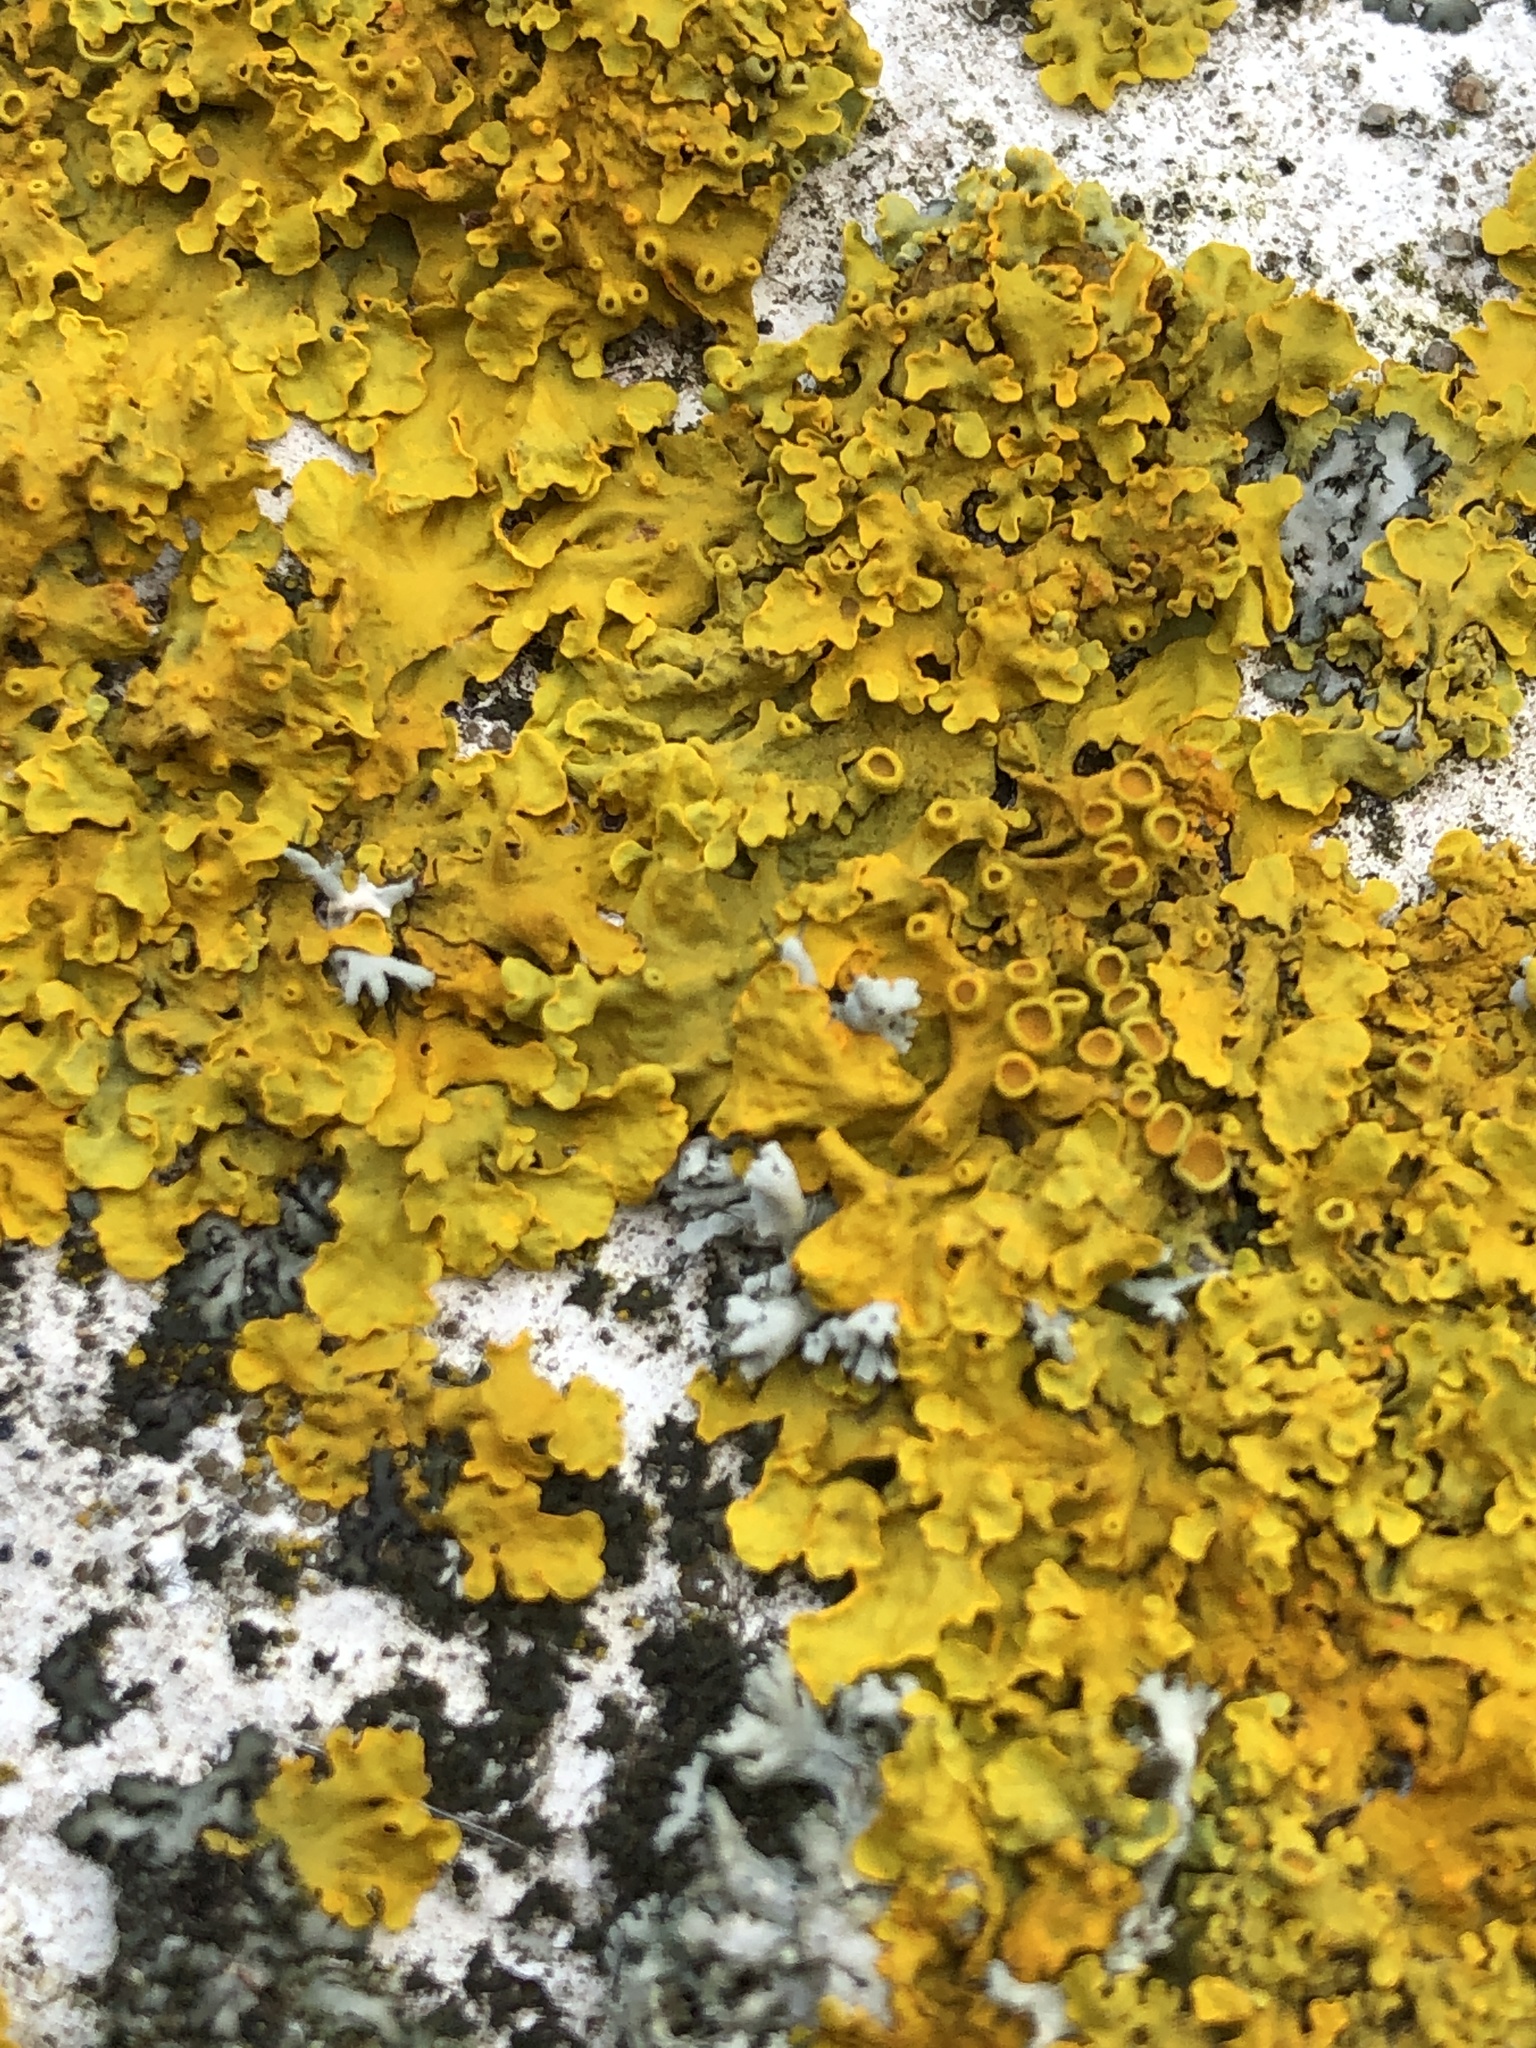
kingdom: Fungi
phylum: Ascomycota
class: Lecanoromycetes
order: Teloschistales
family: Teloschistaceae
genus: Xanthoria
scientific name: Xanthoria parietina
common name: Common orange lichen
